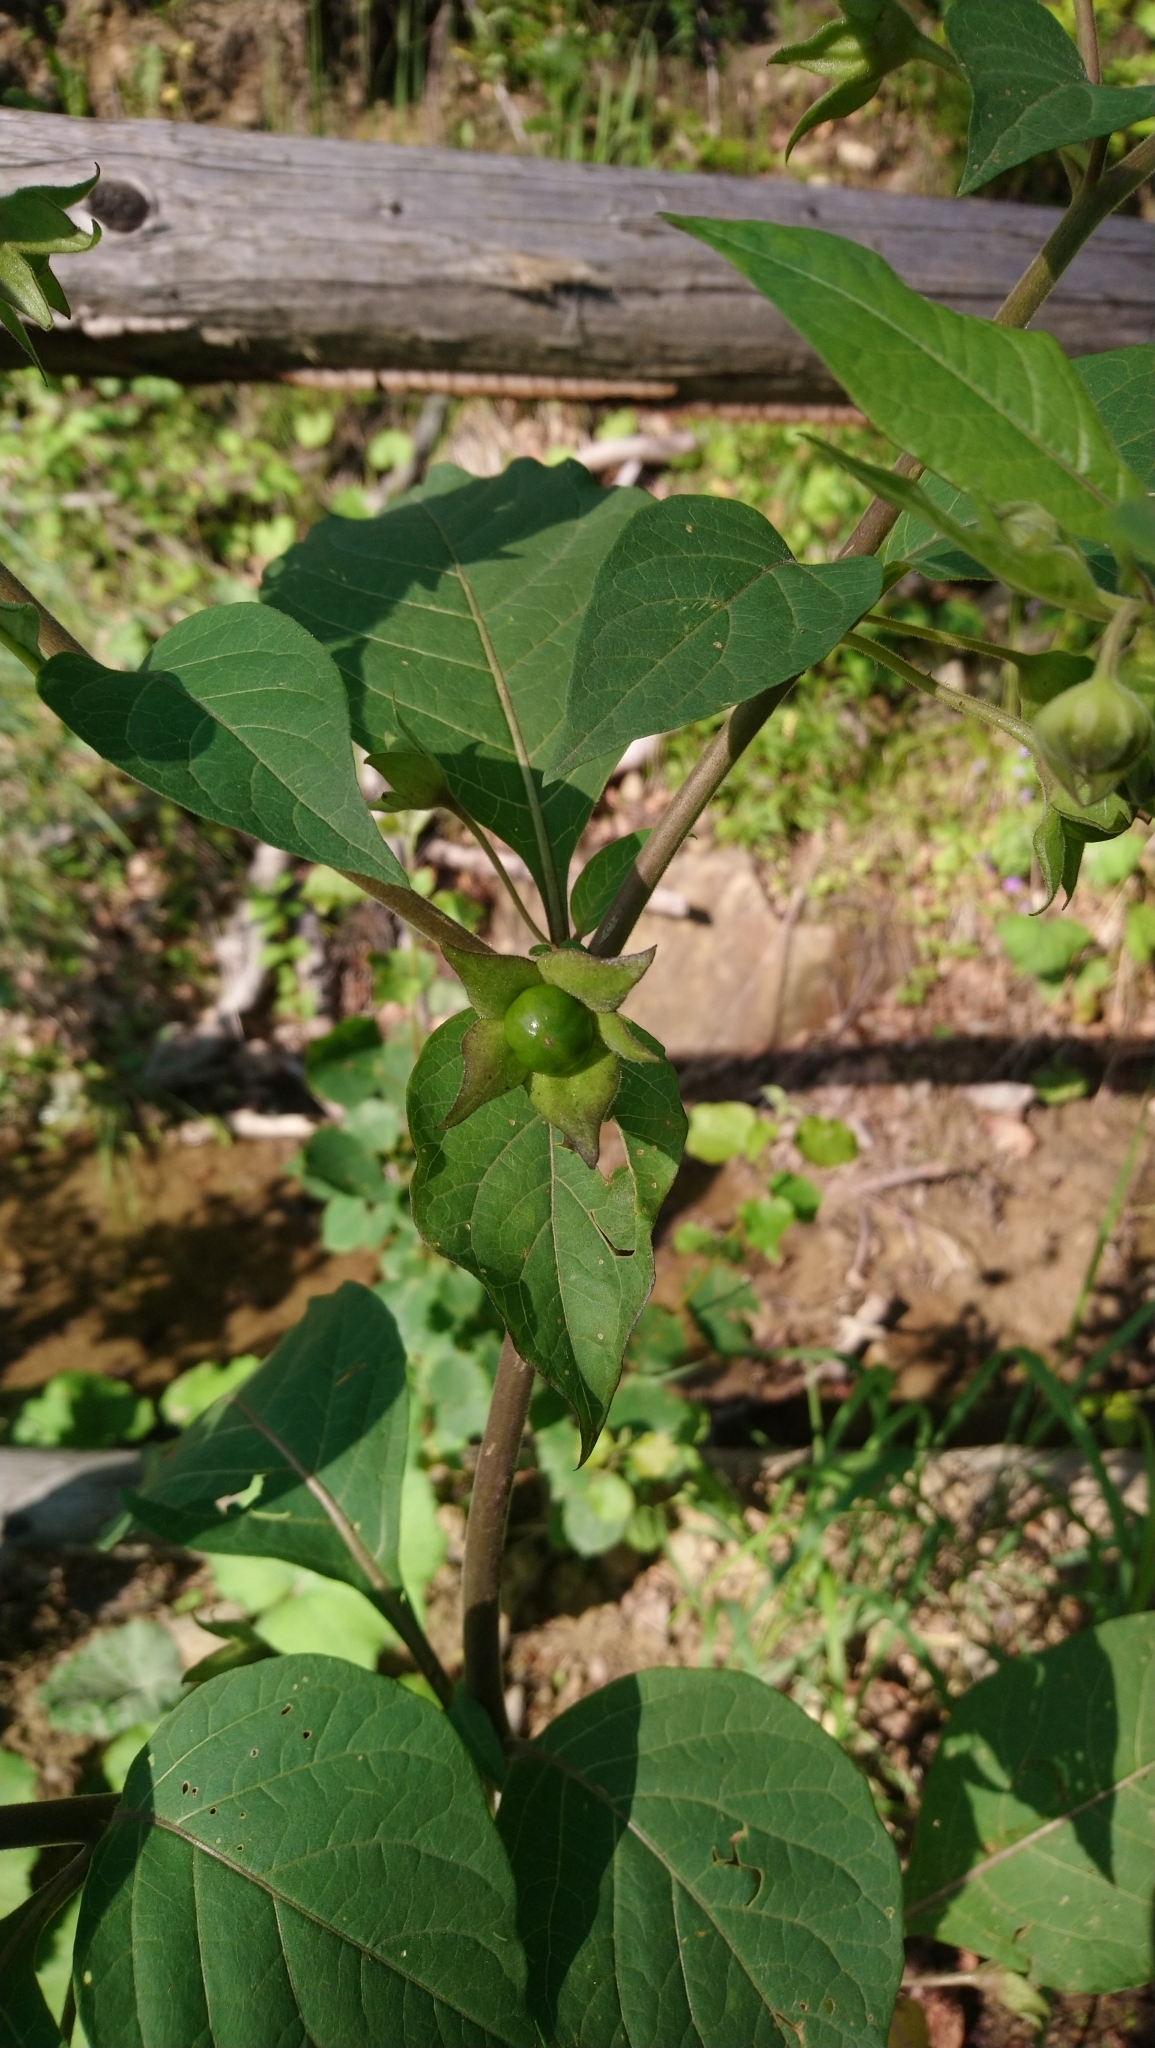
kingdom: Plantae
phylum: Tracheophyta
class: Magnoliopsida
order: Solanales
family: Solanaceae
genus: Atropa
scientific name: Atropa belladonna
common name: Deadly nightshade
